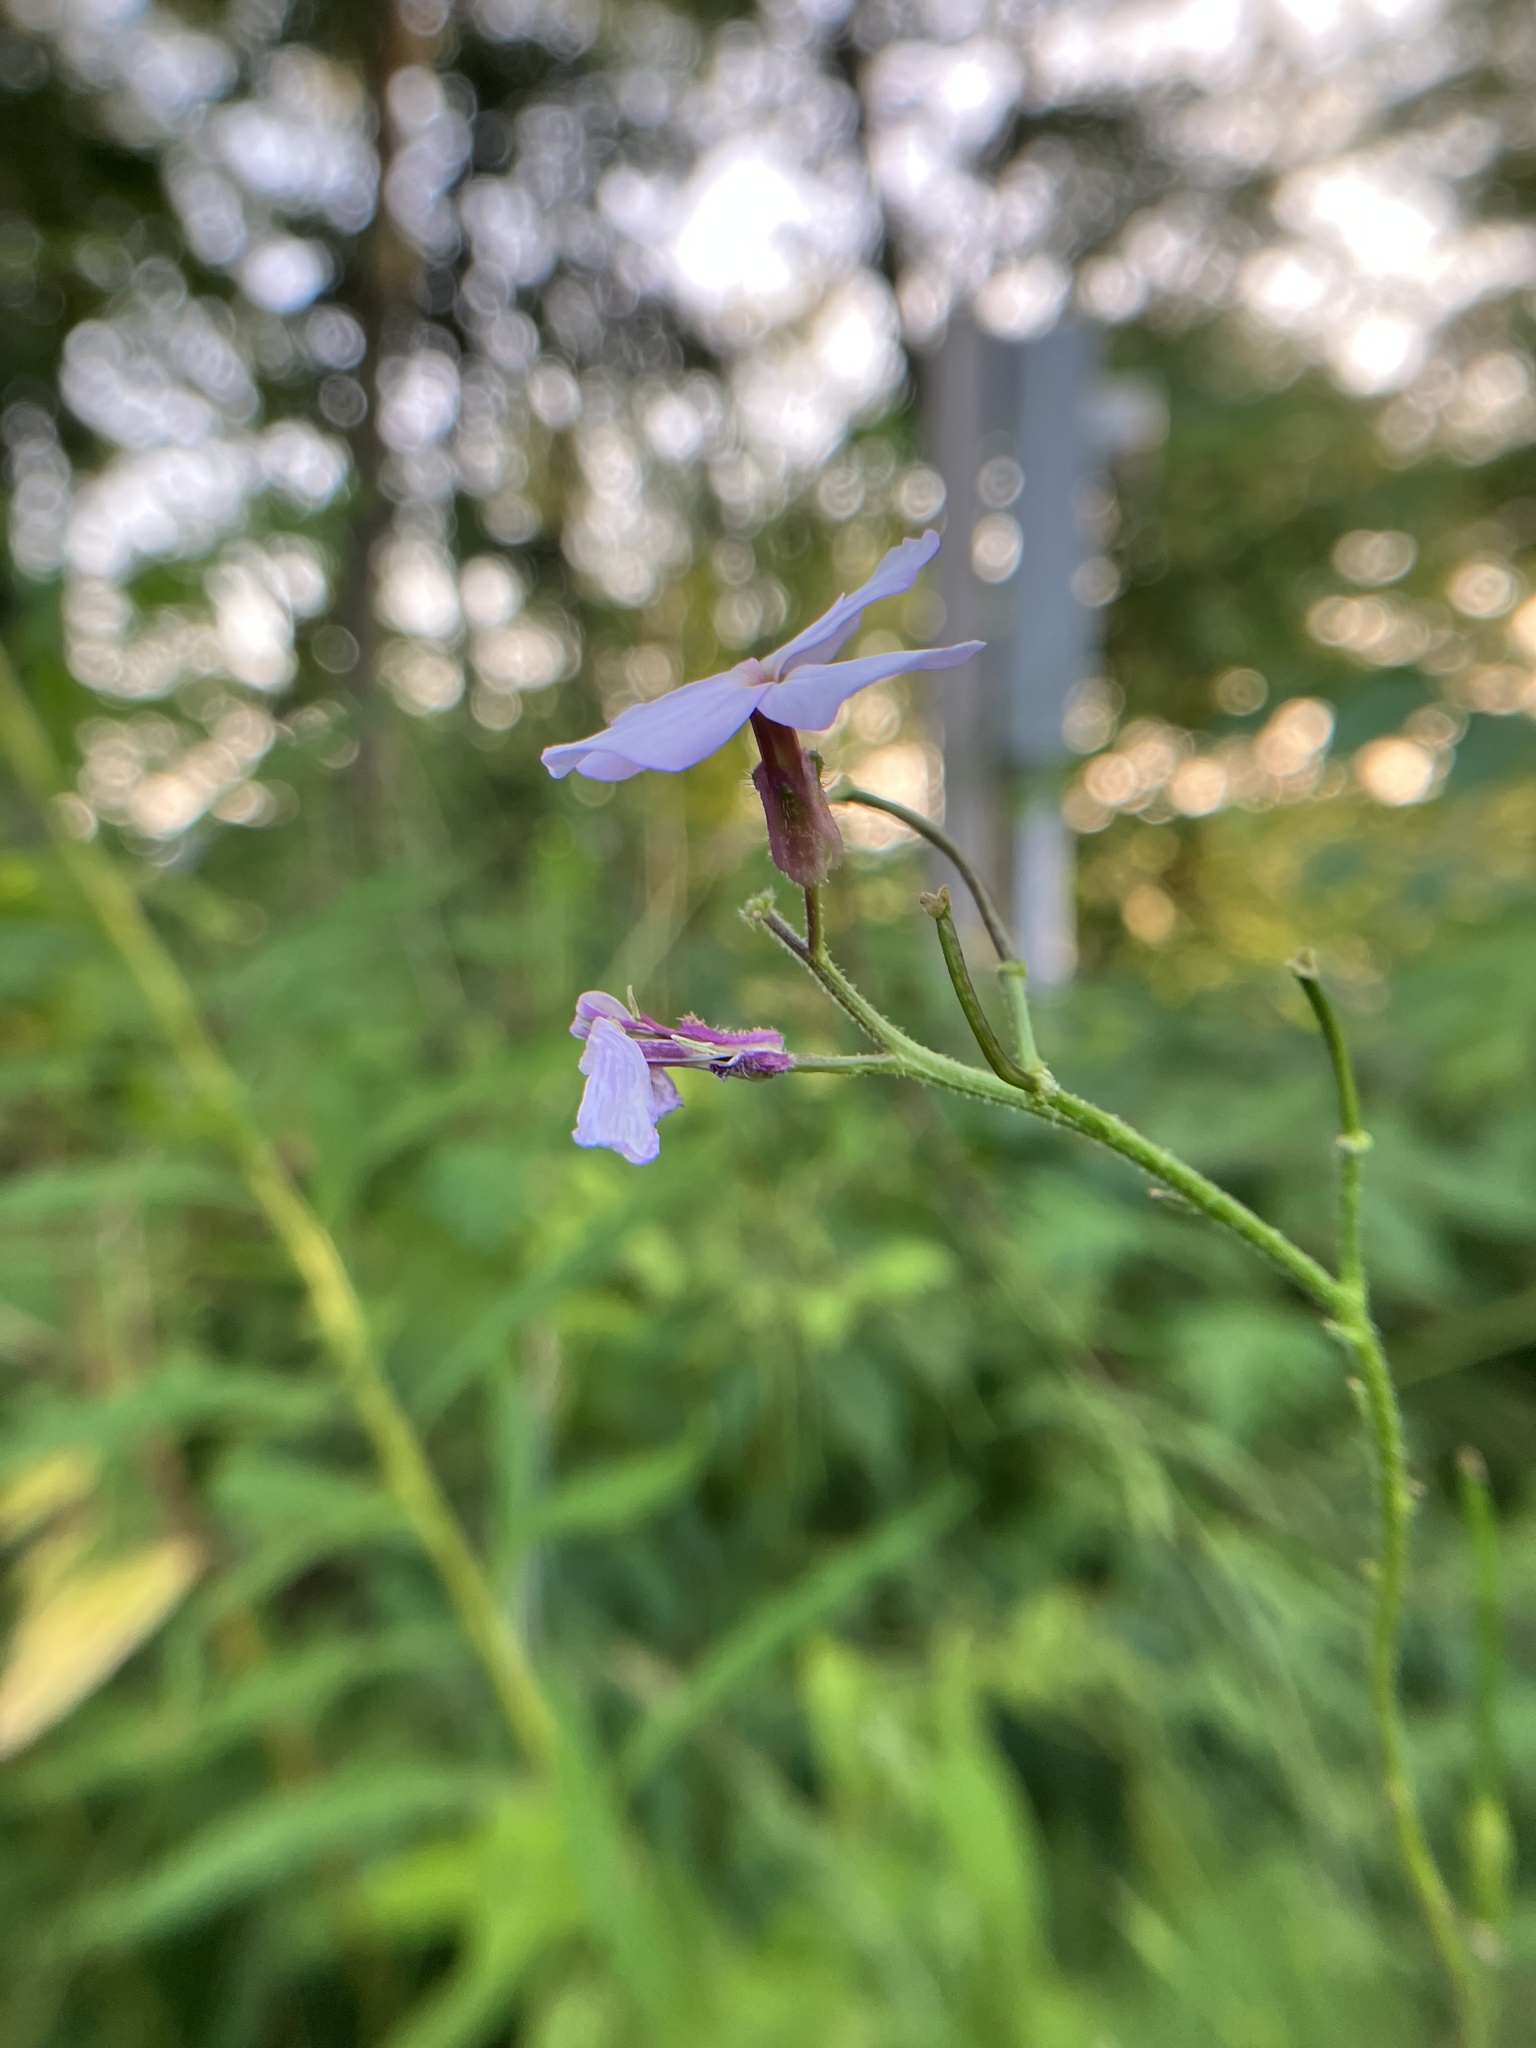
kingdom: Plantae
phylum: Tracheophyta
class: Magnoliopsida
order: Brassicales
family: Brassicaceae
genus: Hesperis
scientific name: Hesperis matronalis
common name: Dame's-violet
